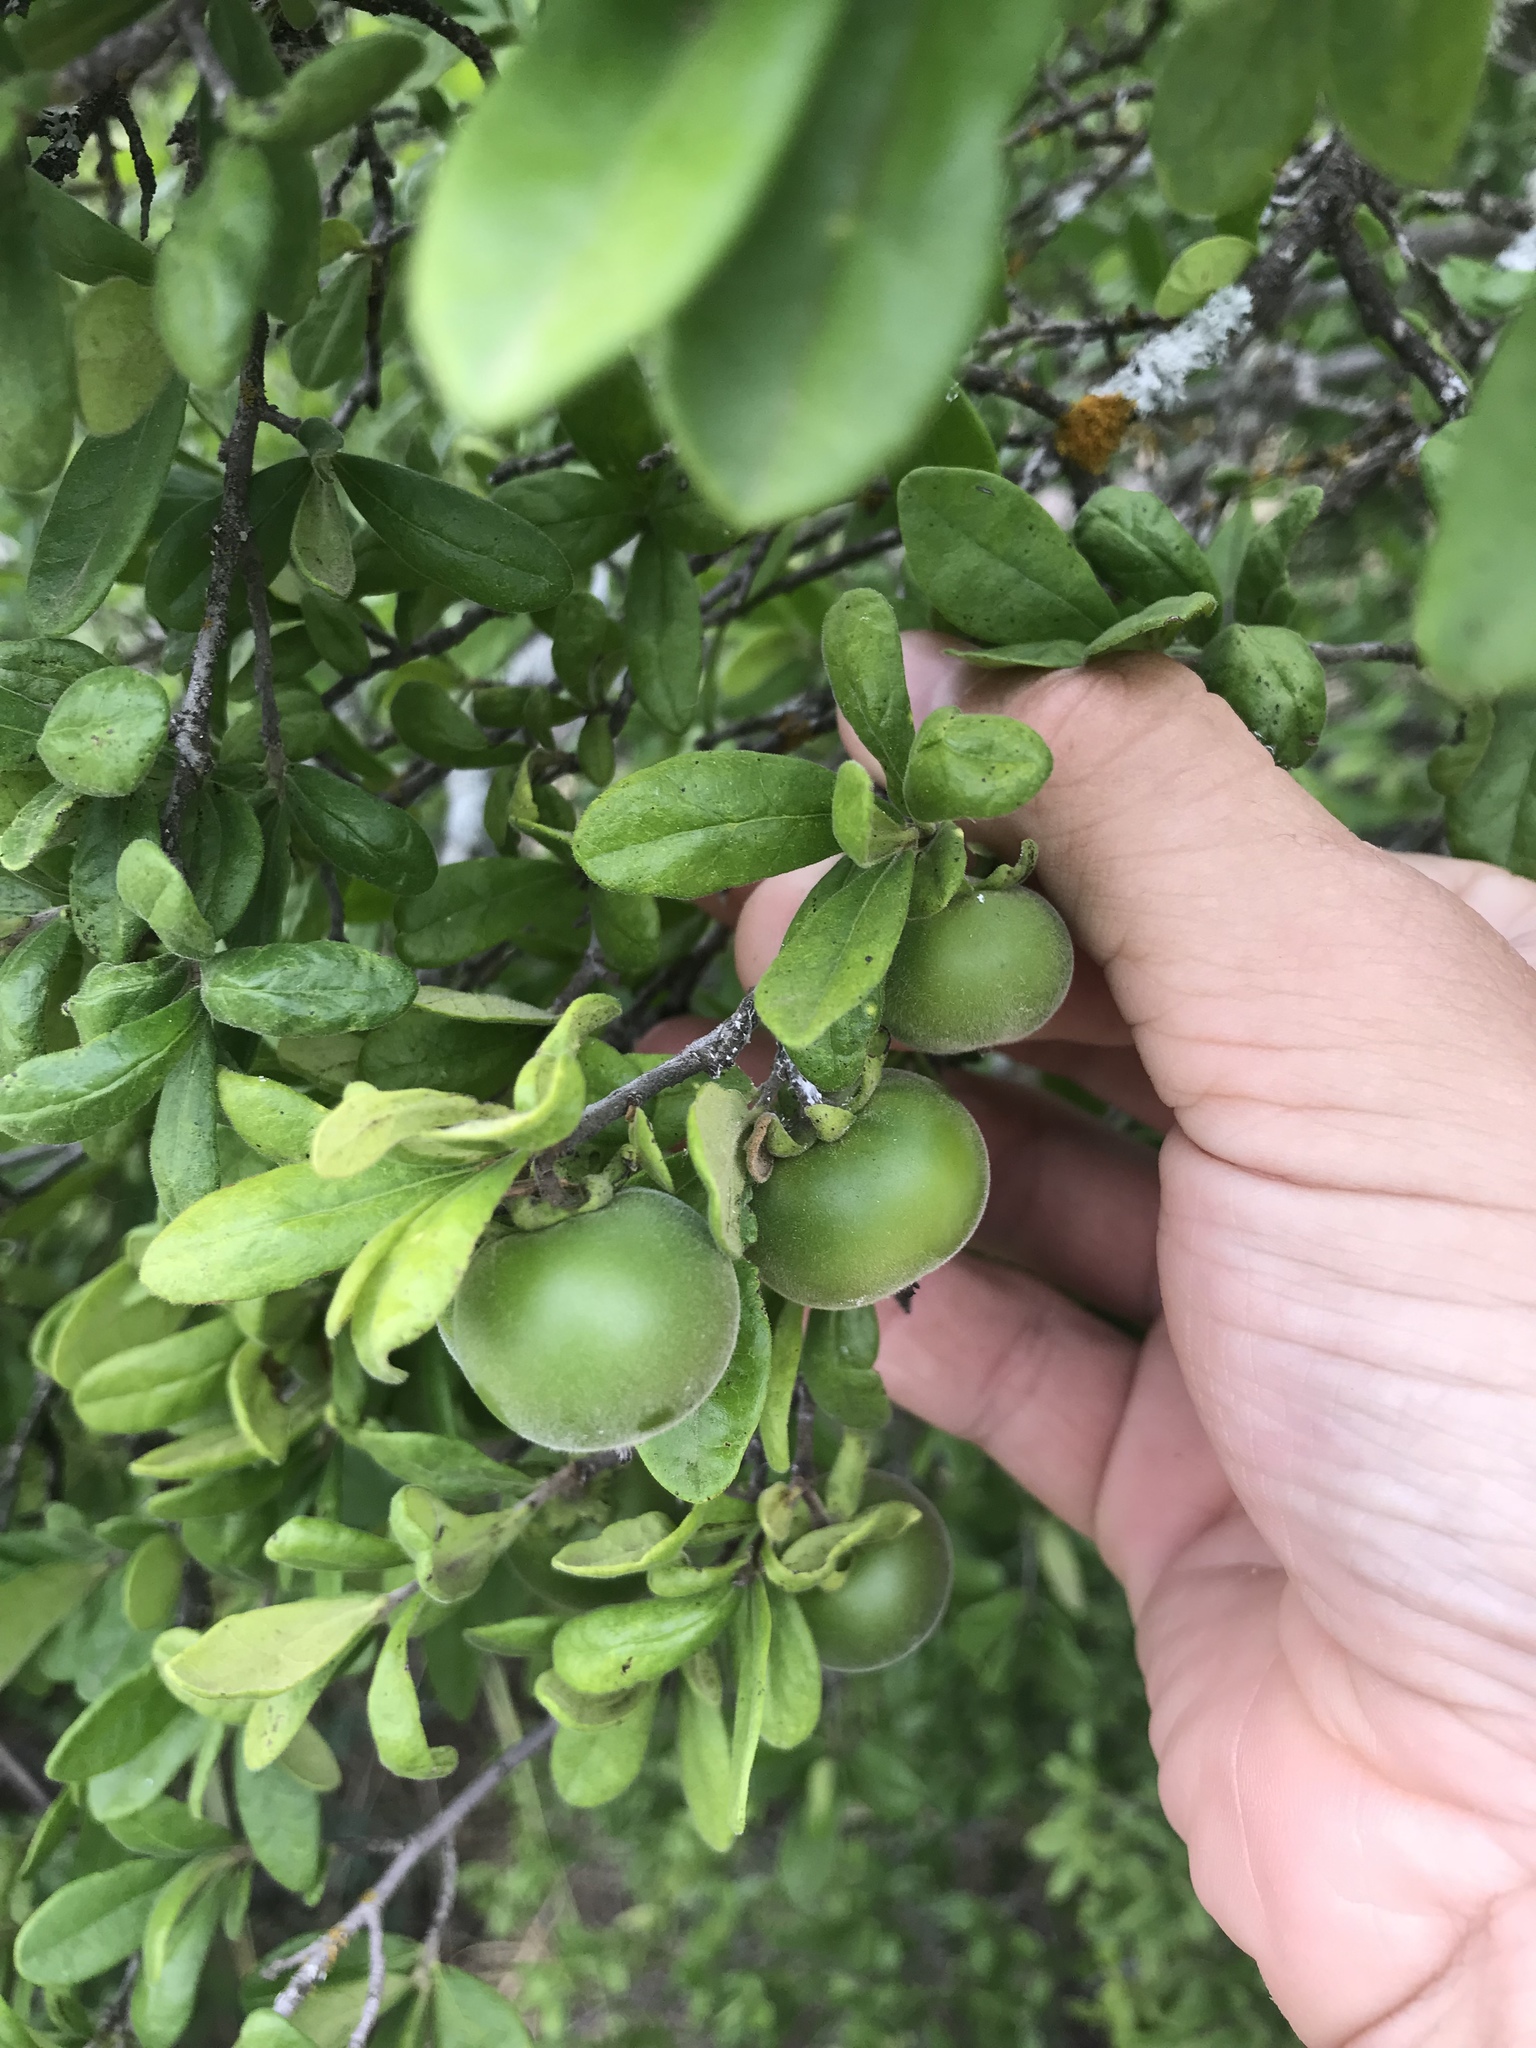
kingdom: Plantae
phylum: Tracheophyta
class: Magnoliopsida
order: Ericales
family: Ebenaceae
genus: Diospyros
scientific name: Diospyros texana
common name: Texas persimmon
